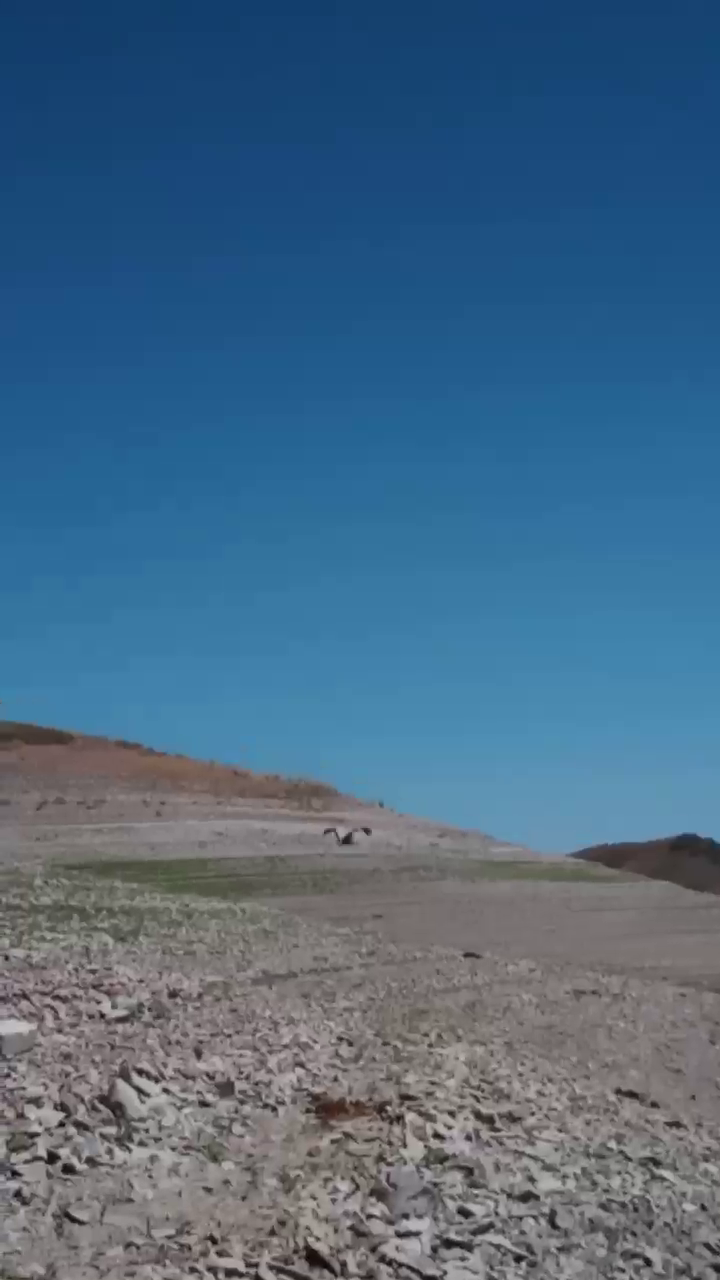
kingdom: Animalia
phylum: Chordata
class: Aves
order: Gruiformes
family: Gruidae
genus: Anthropoides
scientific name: Anthropoides virgo
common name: Demoiselle crane
